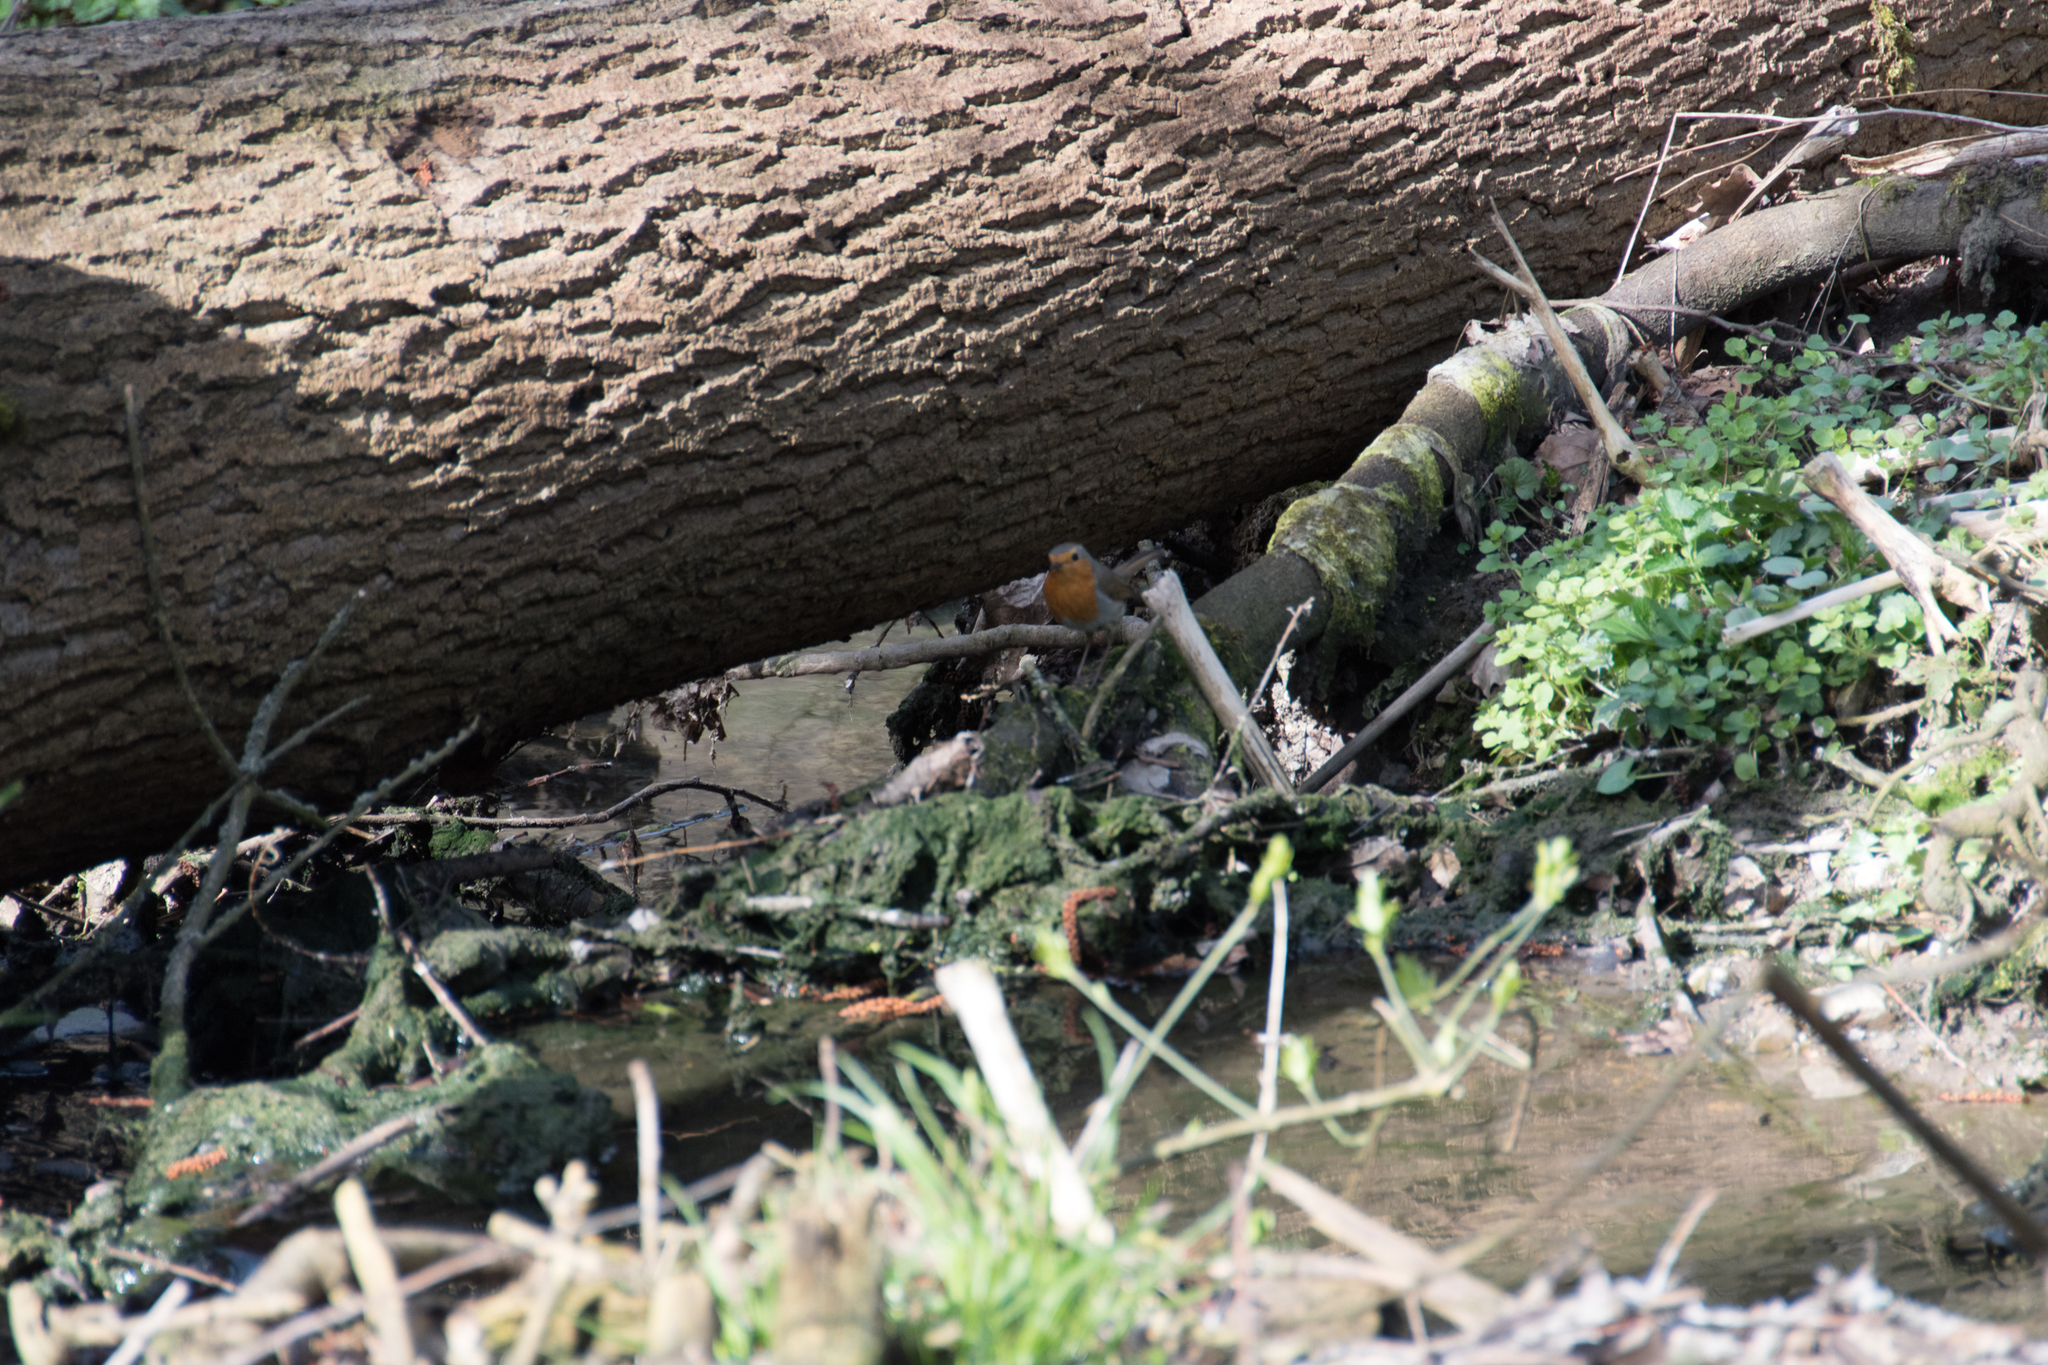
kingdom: Animalia
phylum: Chordata
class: Aves
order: Passeriformes
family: Muscicapidae
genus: Erithacus
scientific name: Erithacus rubecula
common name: European robin
